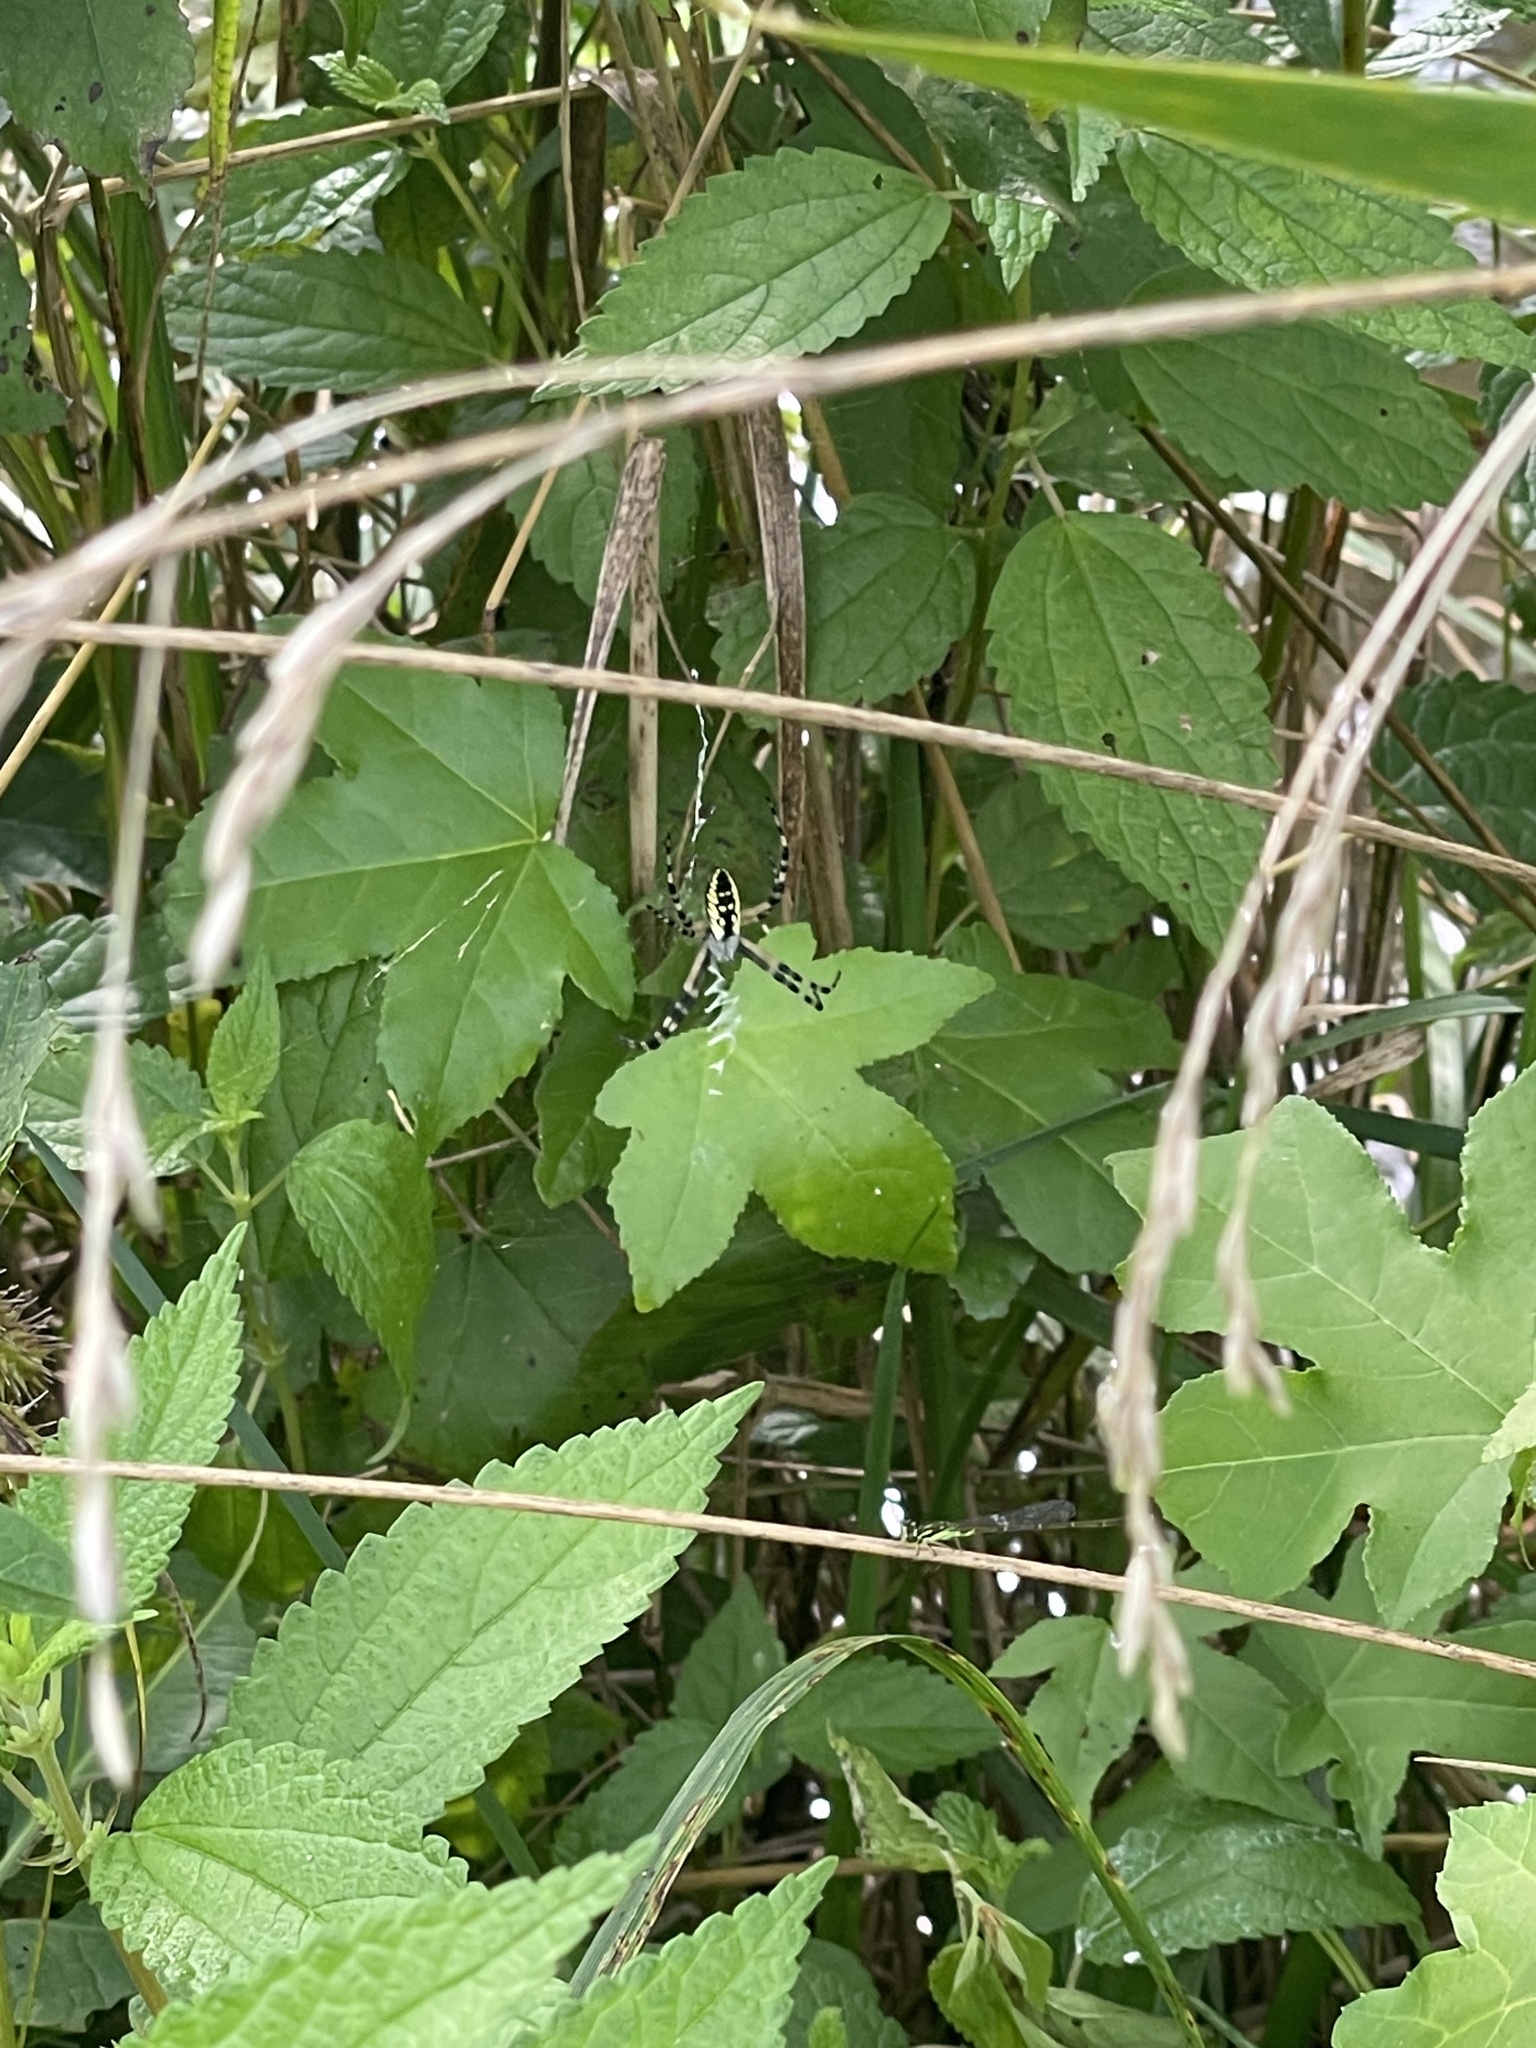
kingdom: Animalia
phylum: Arthropoda
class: Arachnida
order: Araneae
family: Araneidae
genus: Argiope
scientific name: Argiope aurantia
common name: Orb weavers
